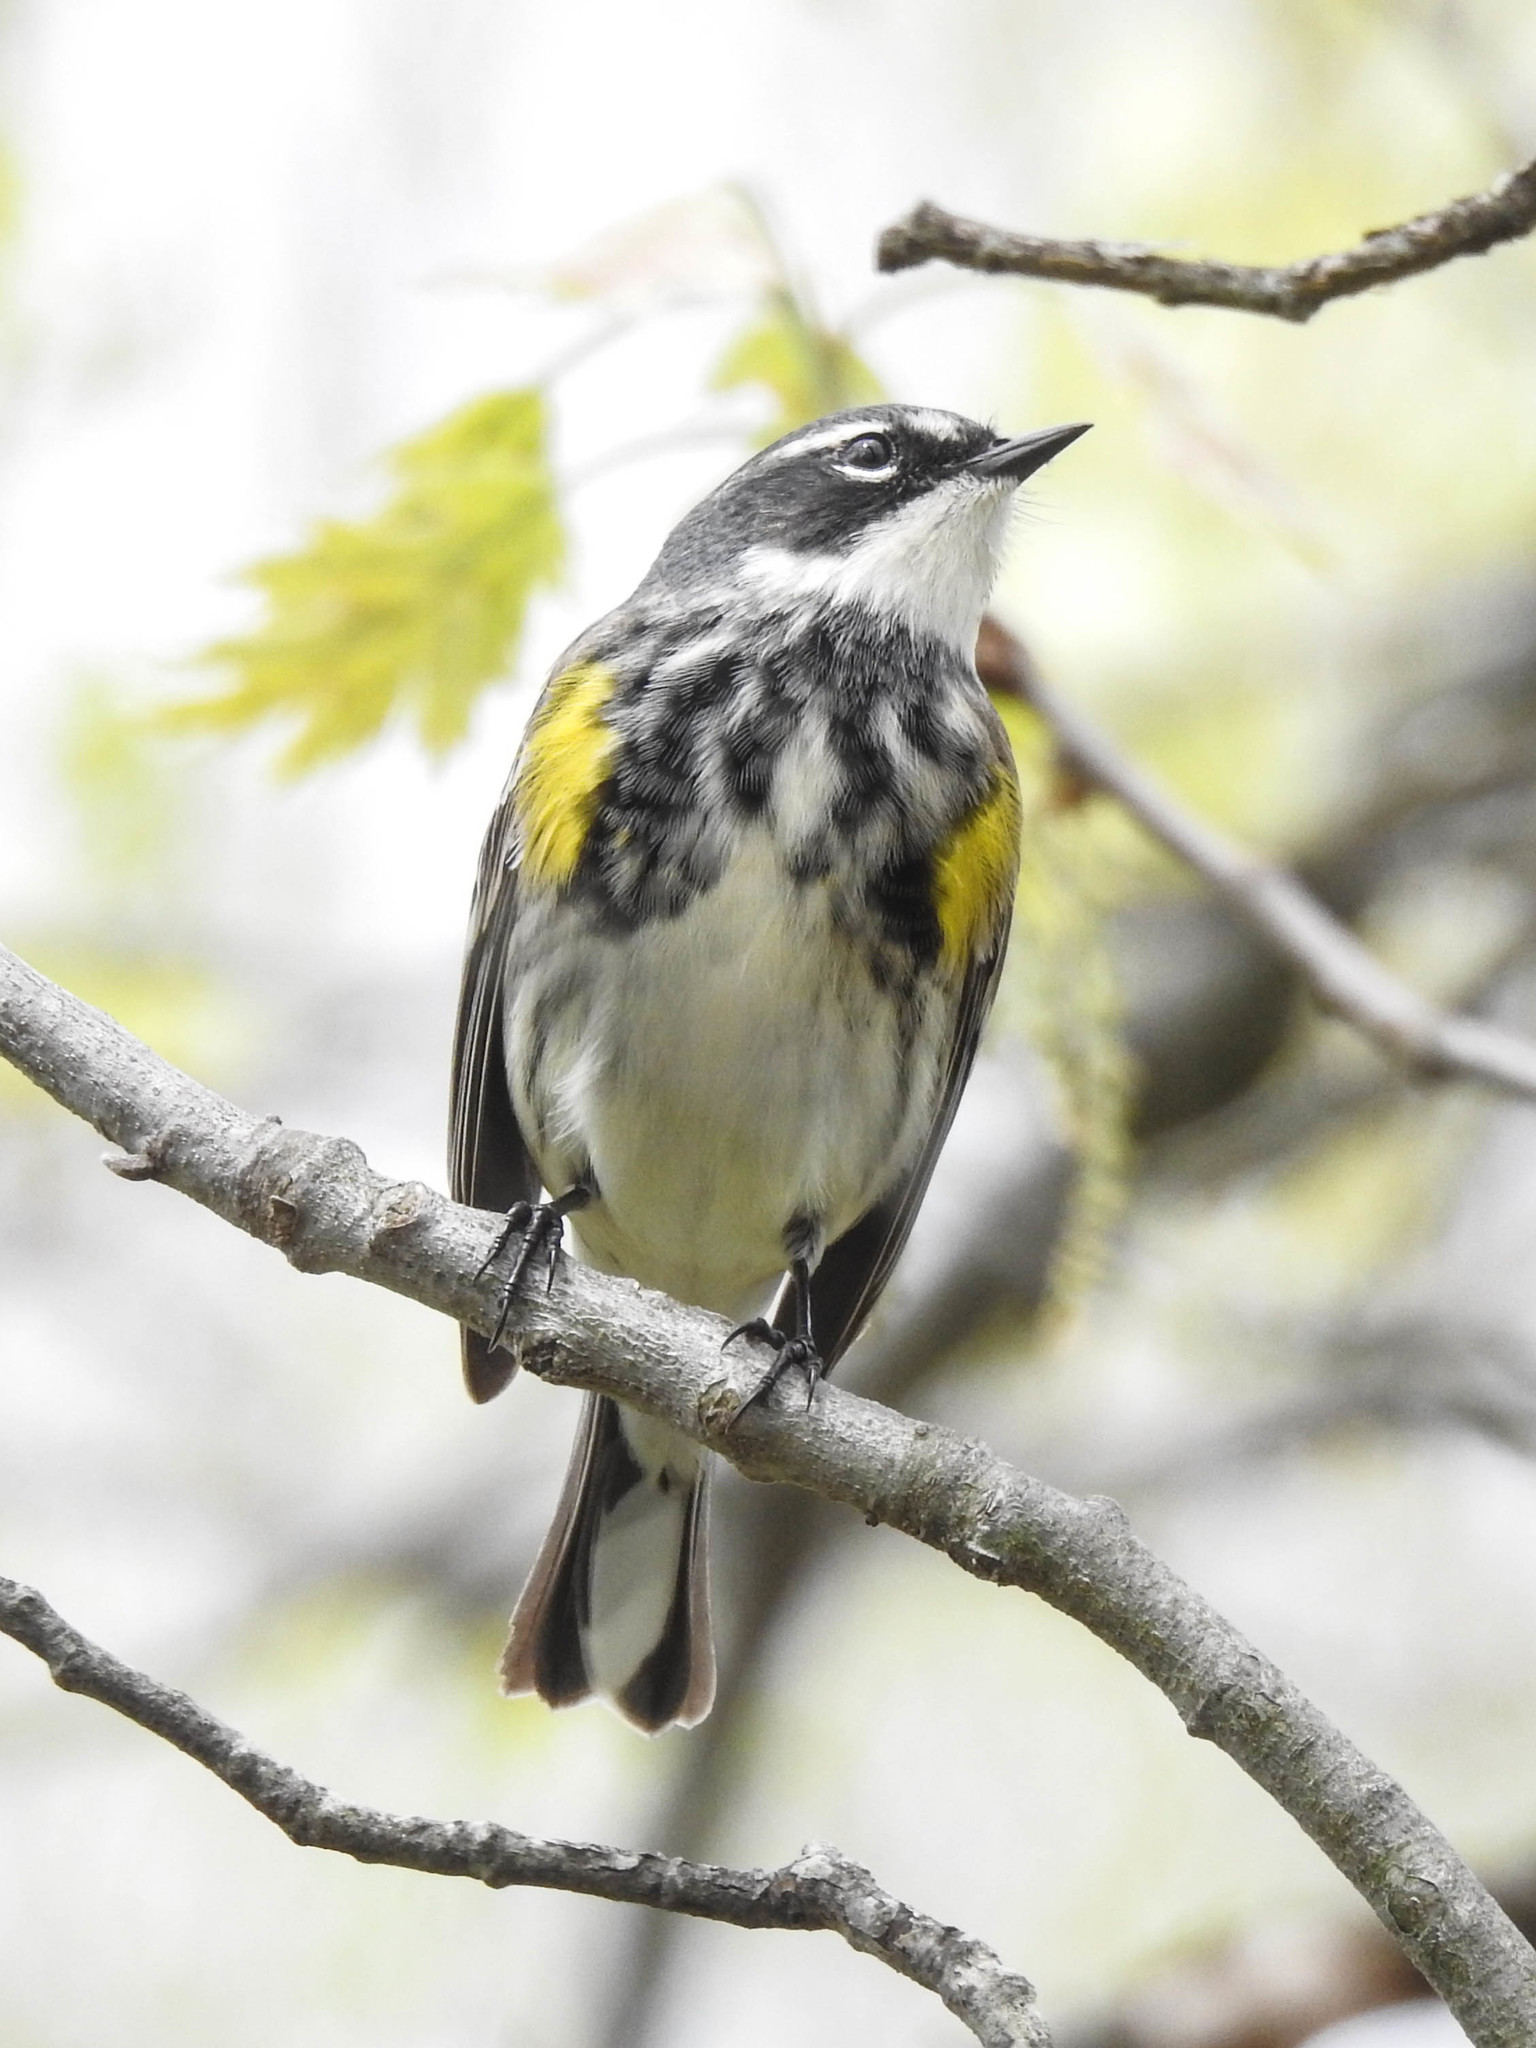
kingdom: Animalia
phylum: Chordata
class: Aves
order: Passeriformes
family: Parulidae
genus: Setophaga
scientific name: Setophaga coronata
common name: Myrtle warbler
